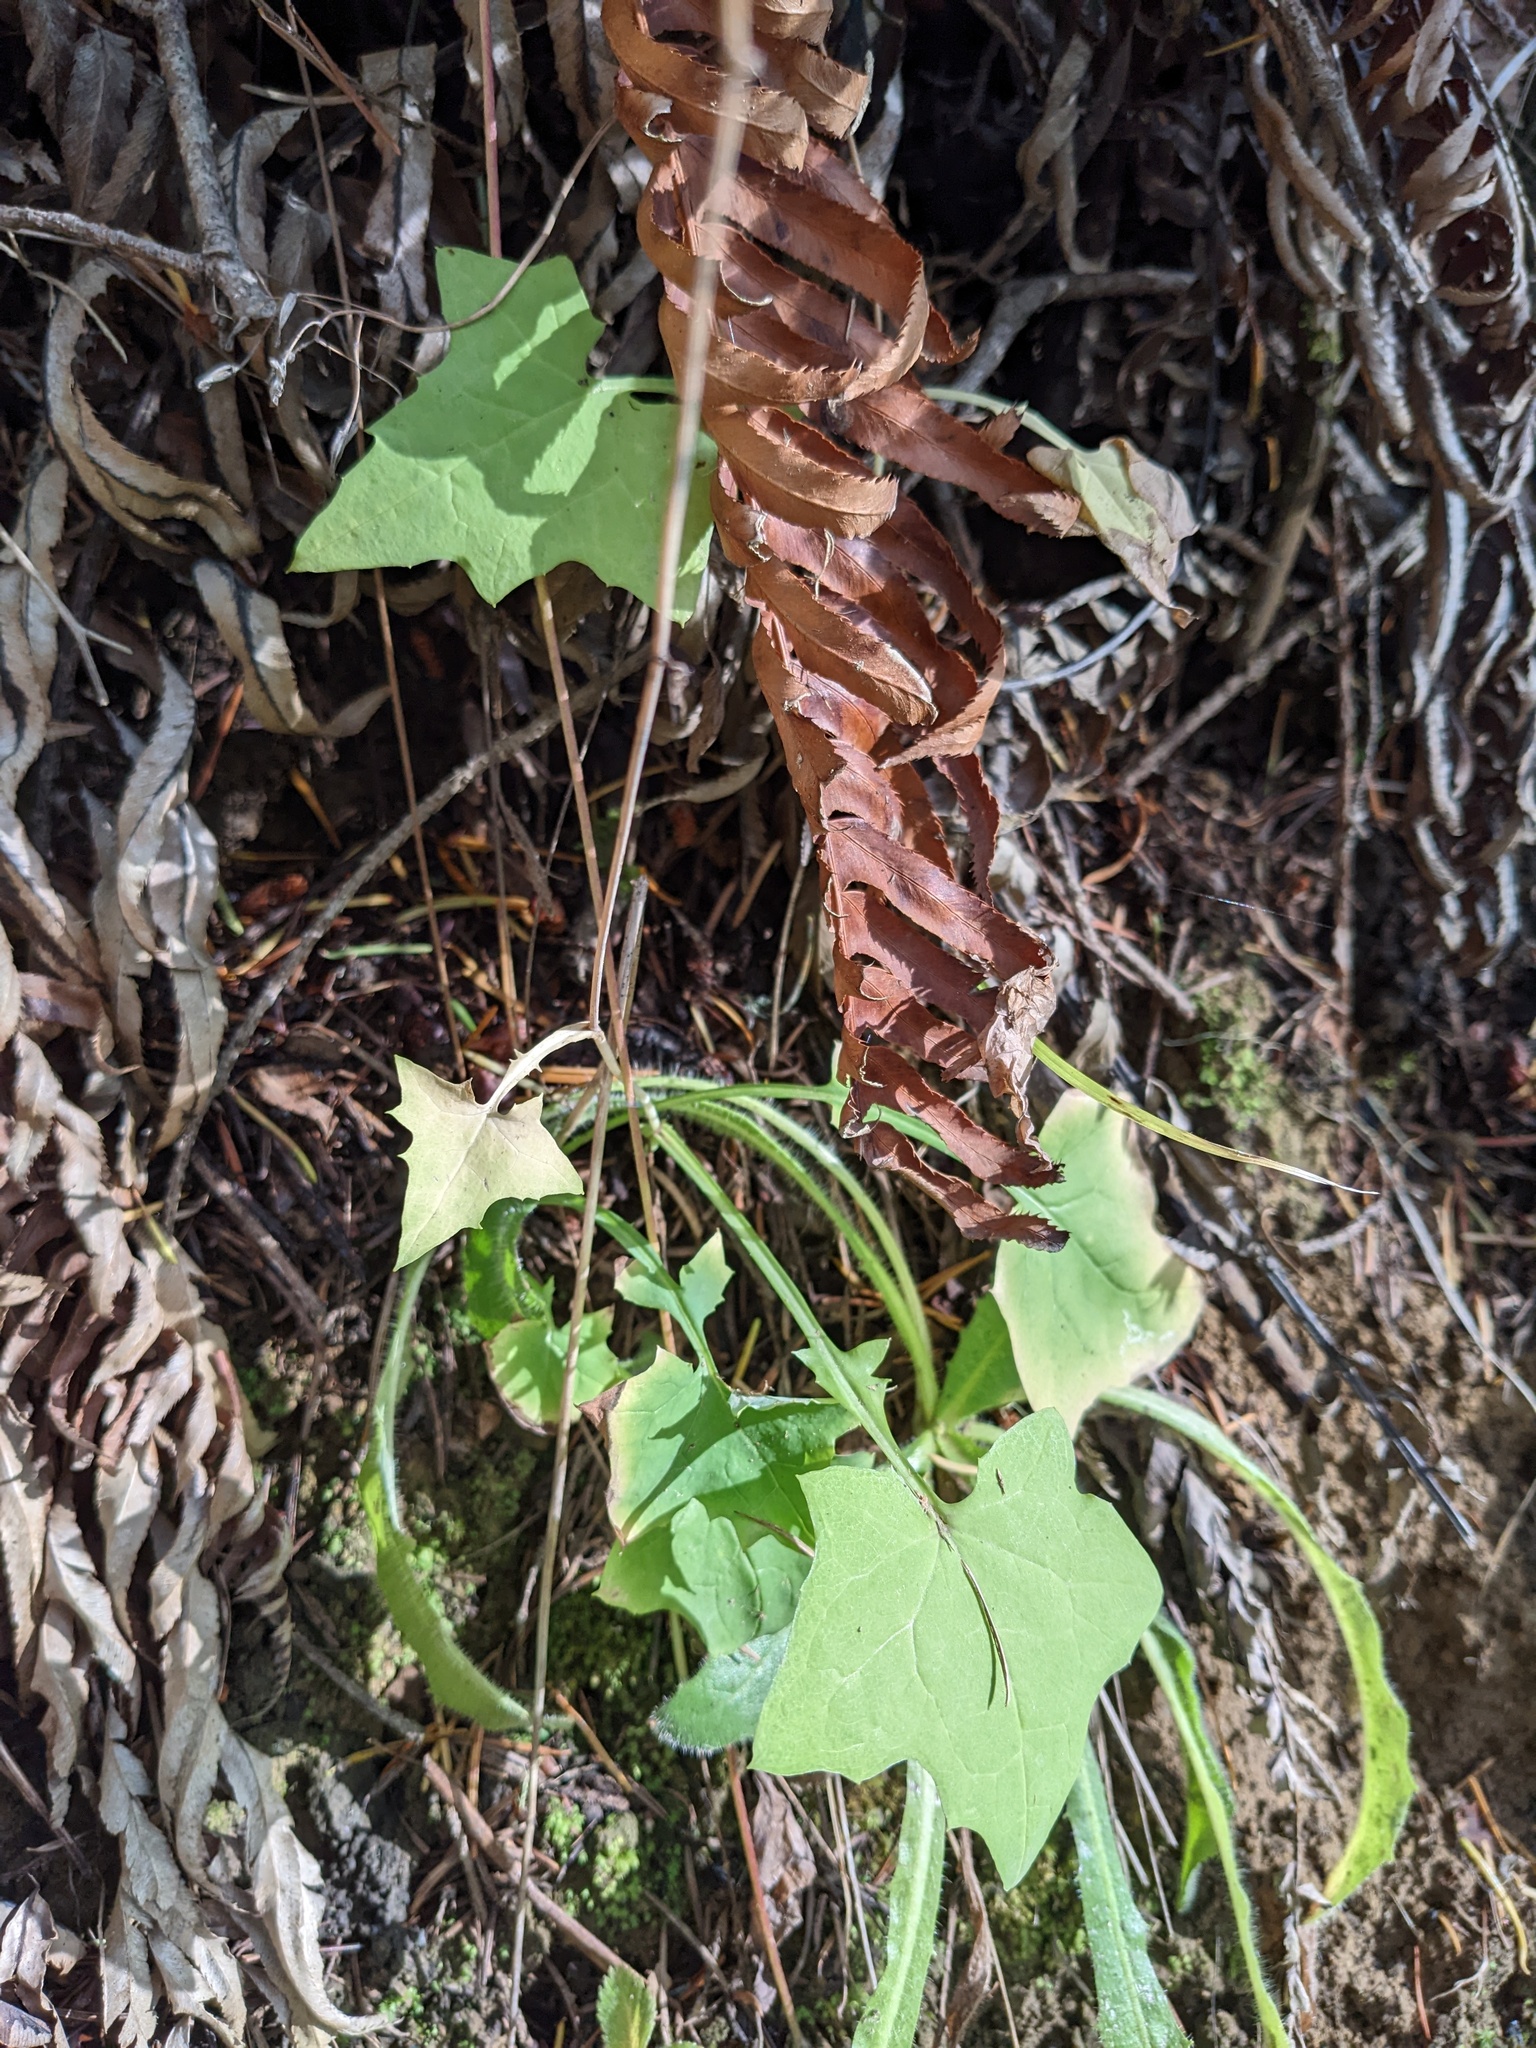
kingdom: Plantae
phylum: Tracheophyta
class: Magnoliopsida
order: Asterales
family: Asteraceae
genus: Mycelis
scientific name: Mycelis muralis
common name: Wall lettuce
